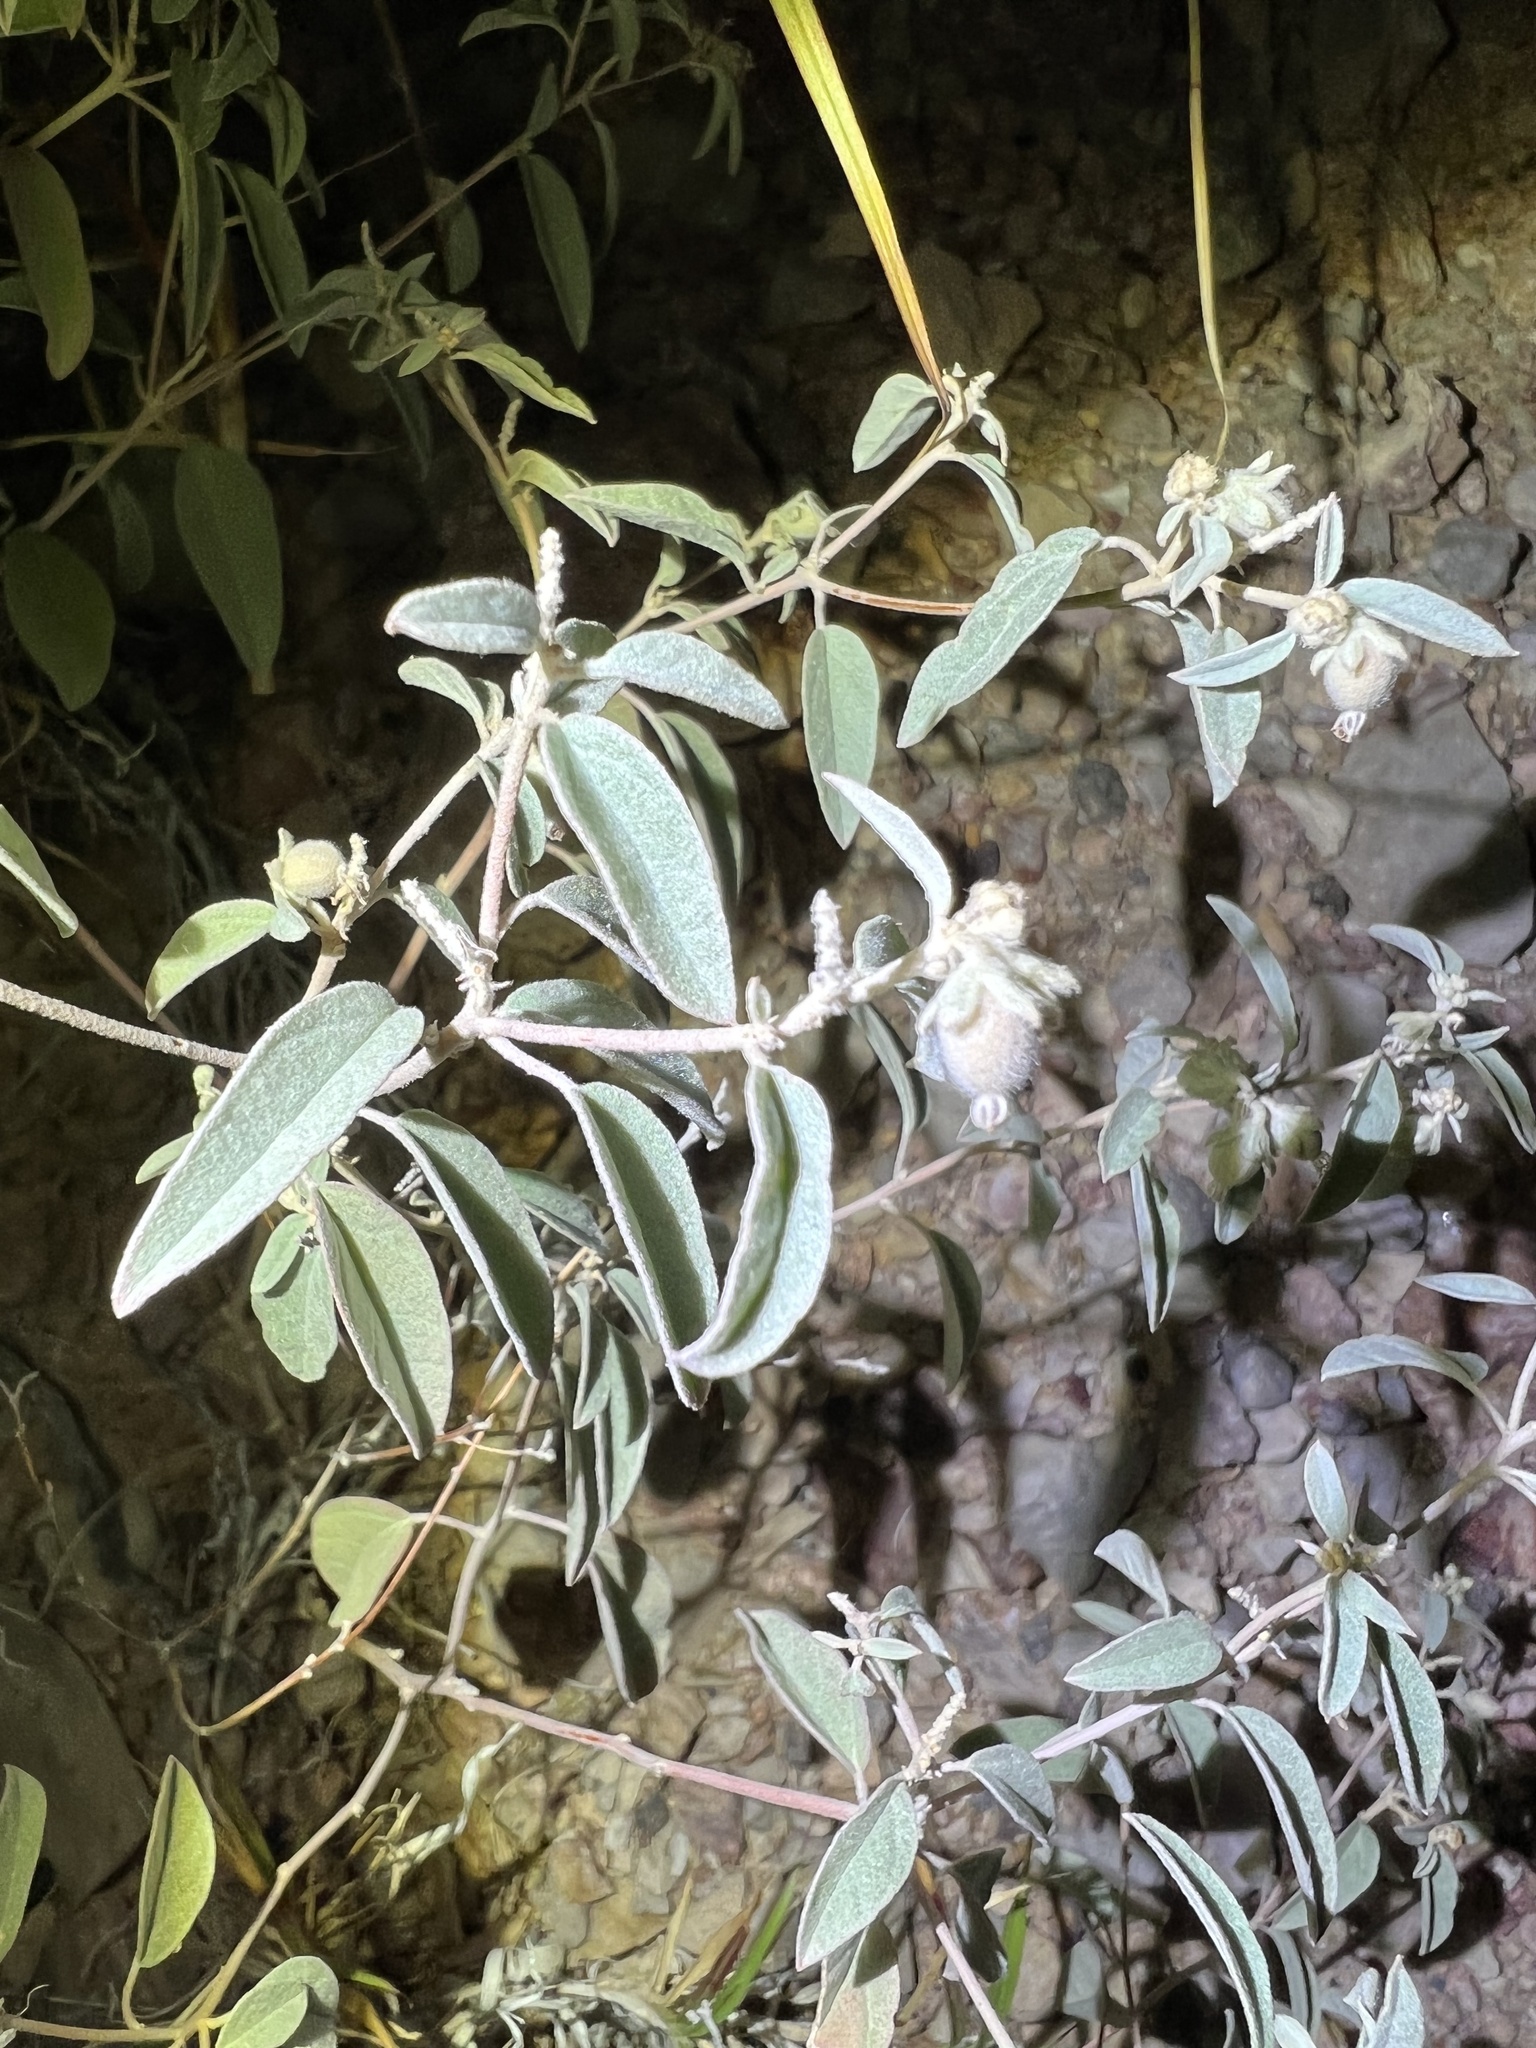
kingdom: Plantae
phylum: Tracheophyta
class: Magnoliopsida
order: Malpighiales
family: Euphorbiaceae
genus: Croton
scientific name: Croton pottsii
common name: Leatherweed
